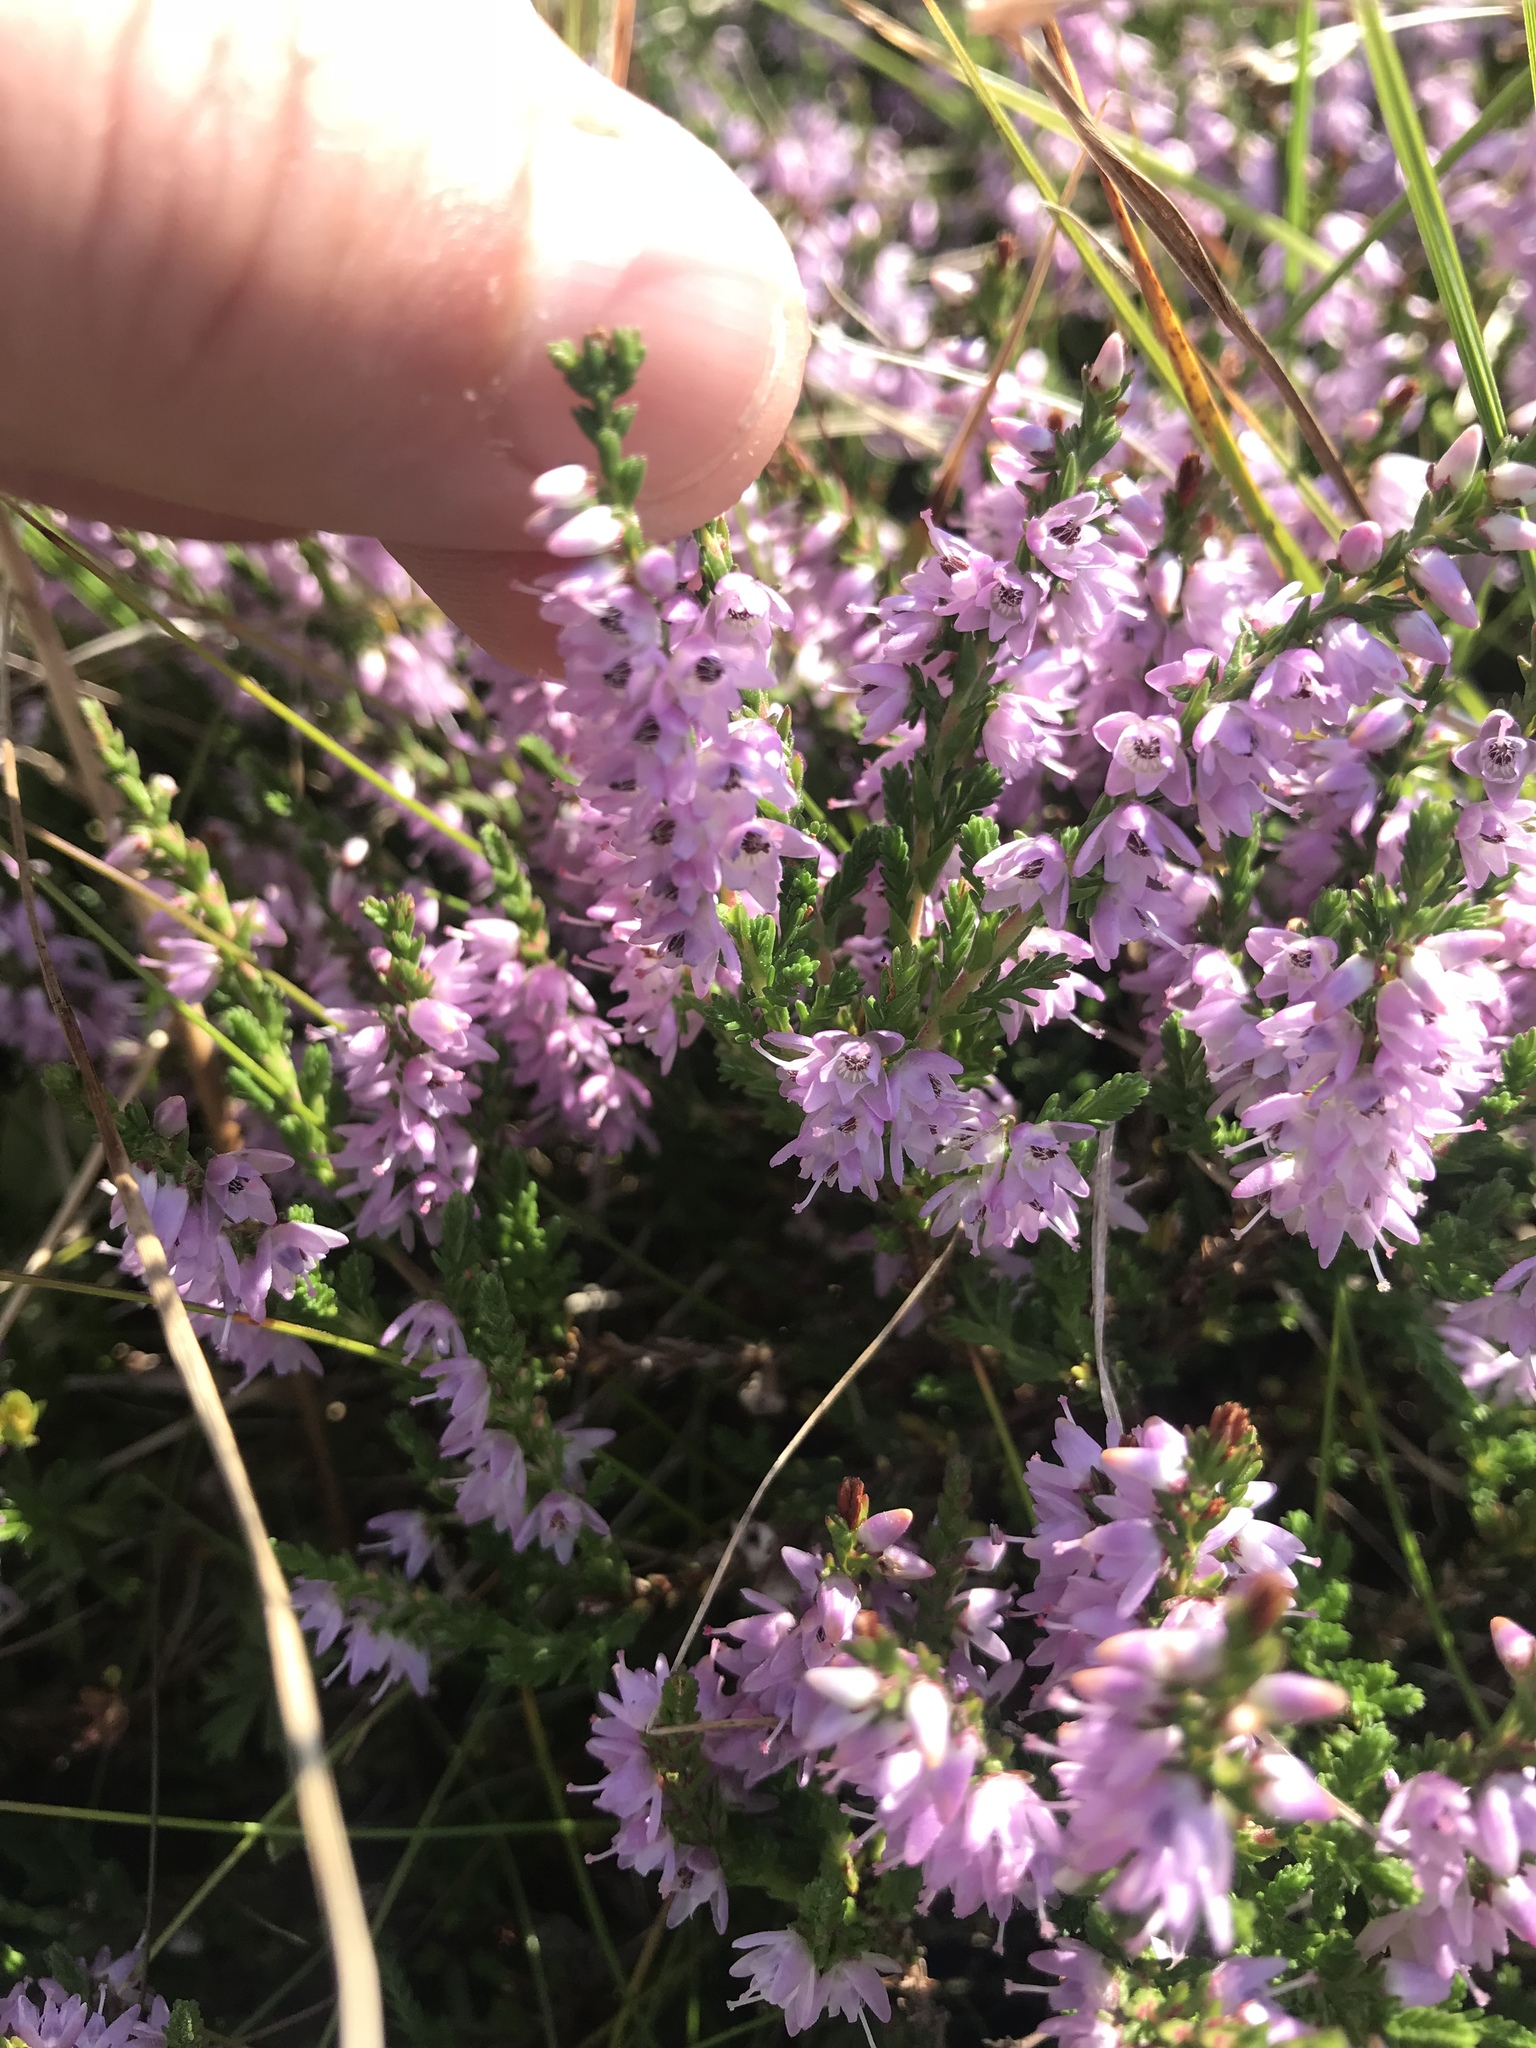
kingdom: Plantae
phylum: Tracheophyta
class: Magnoliopsida
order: Ericales
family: Ericaceae
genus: Calluna
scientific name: Calluna vulgaris
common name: Heather
